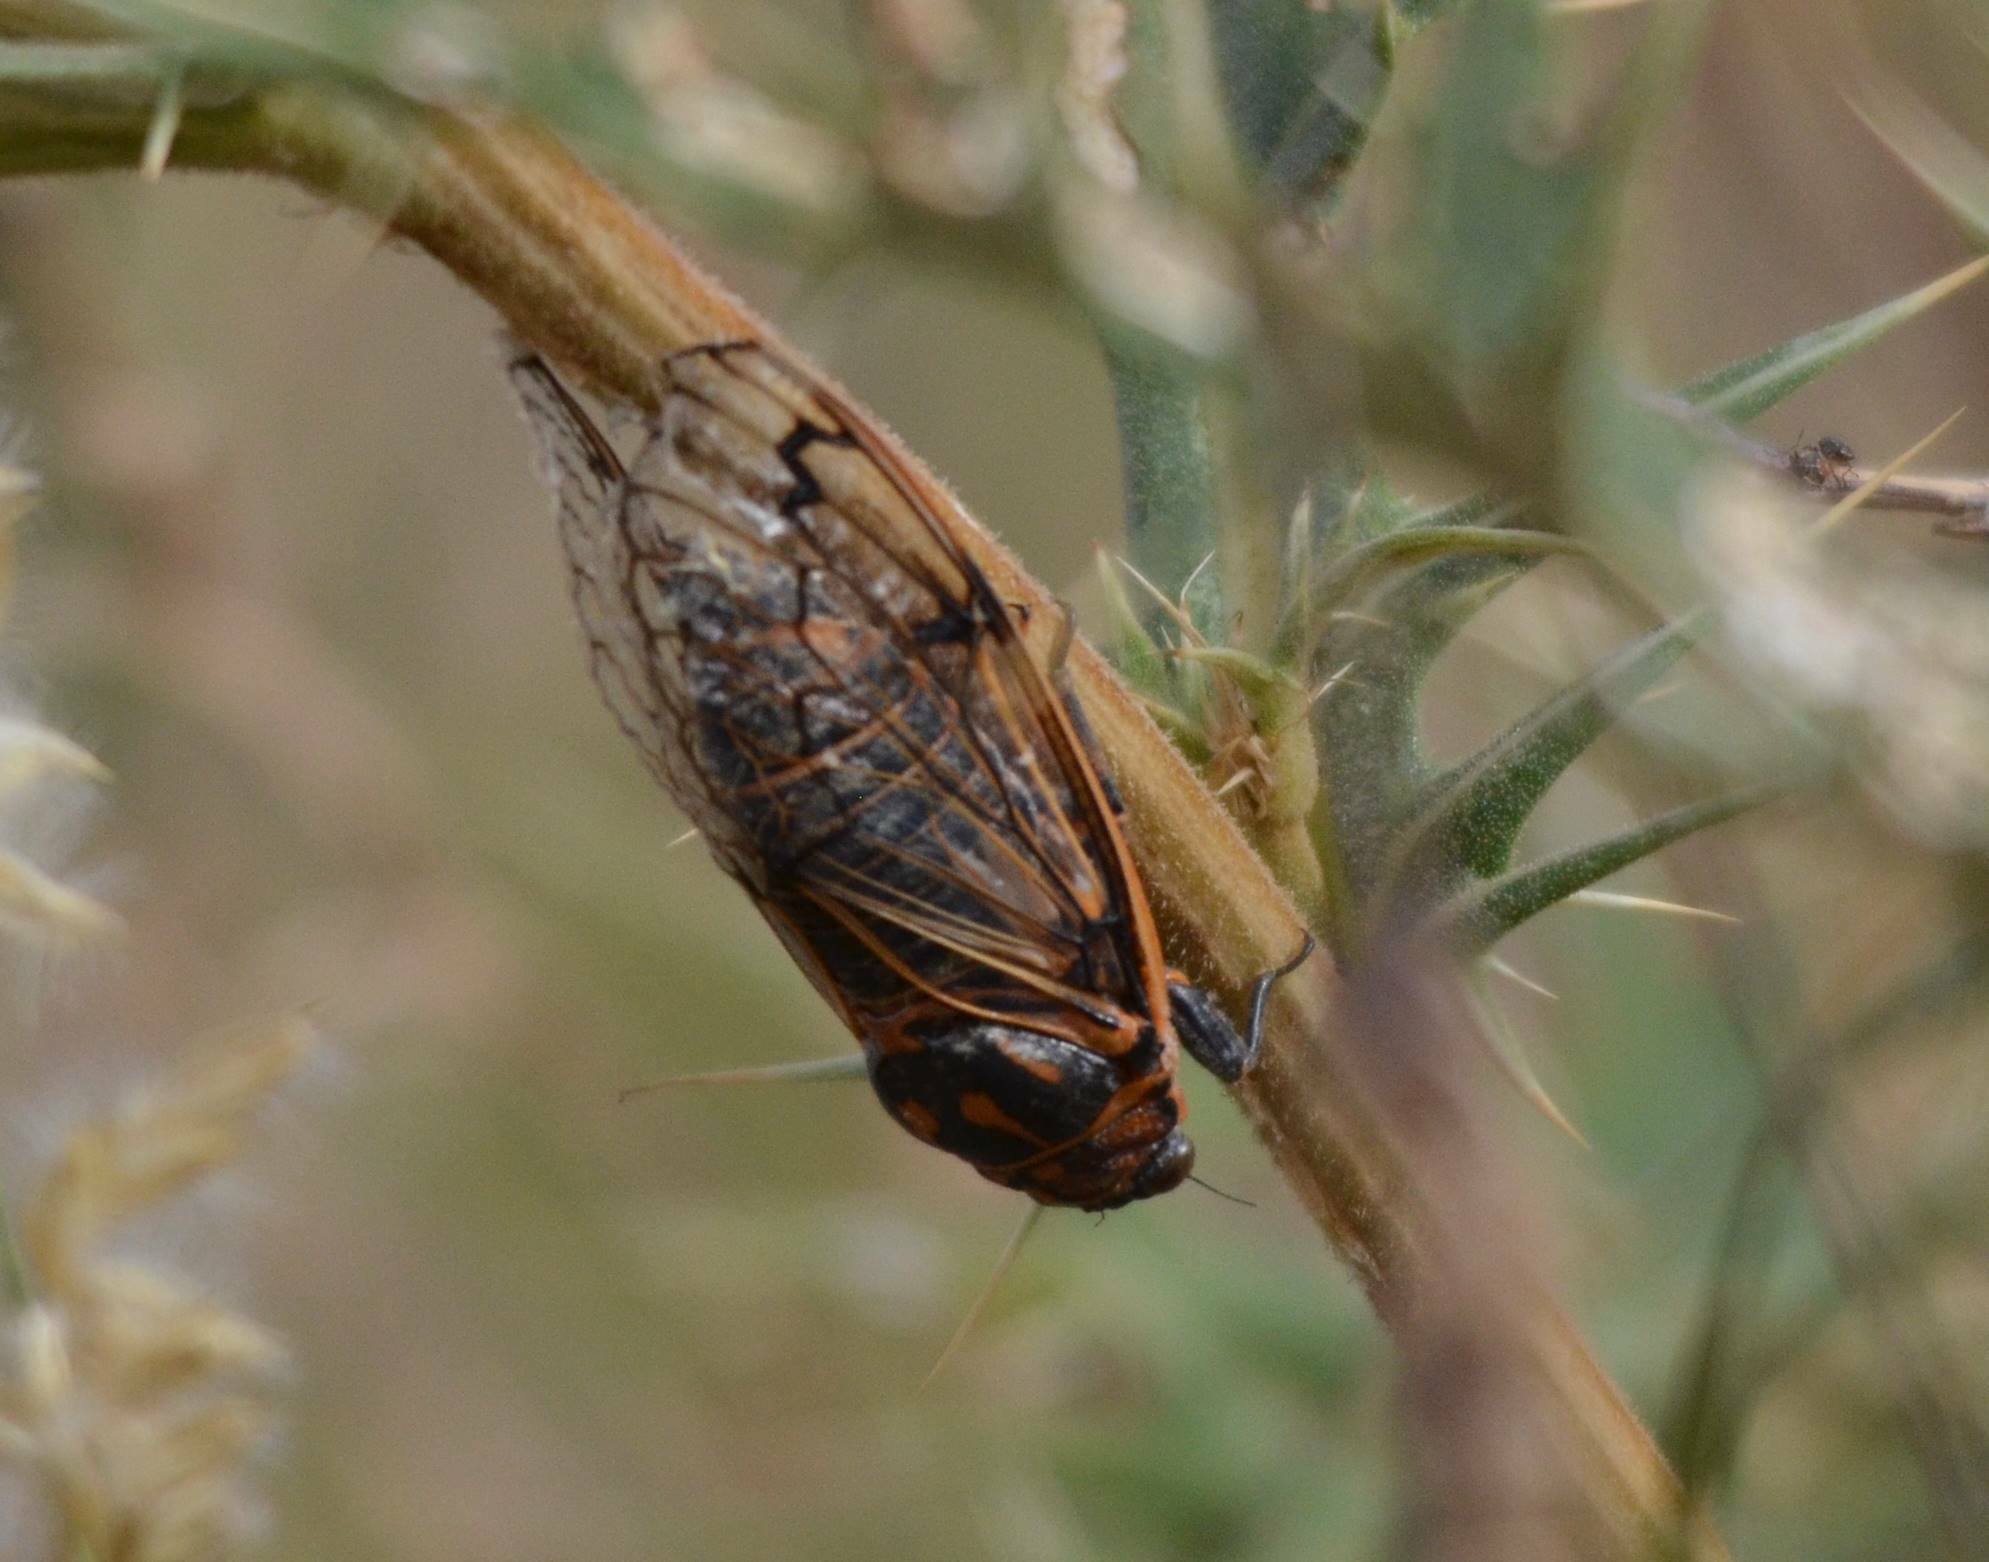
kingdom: Animalia
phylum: Arthropoda
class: Insecta
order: Hemiptera
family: Cicadidae
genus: Psalmocharias
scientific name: Psalmocharias plagifera
